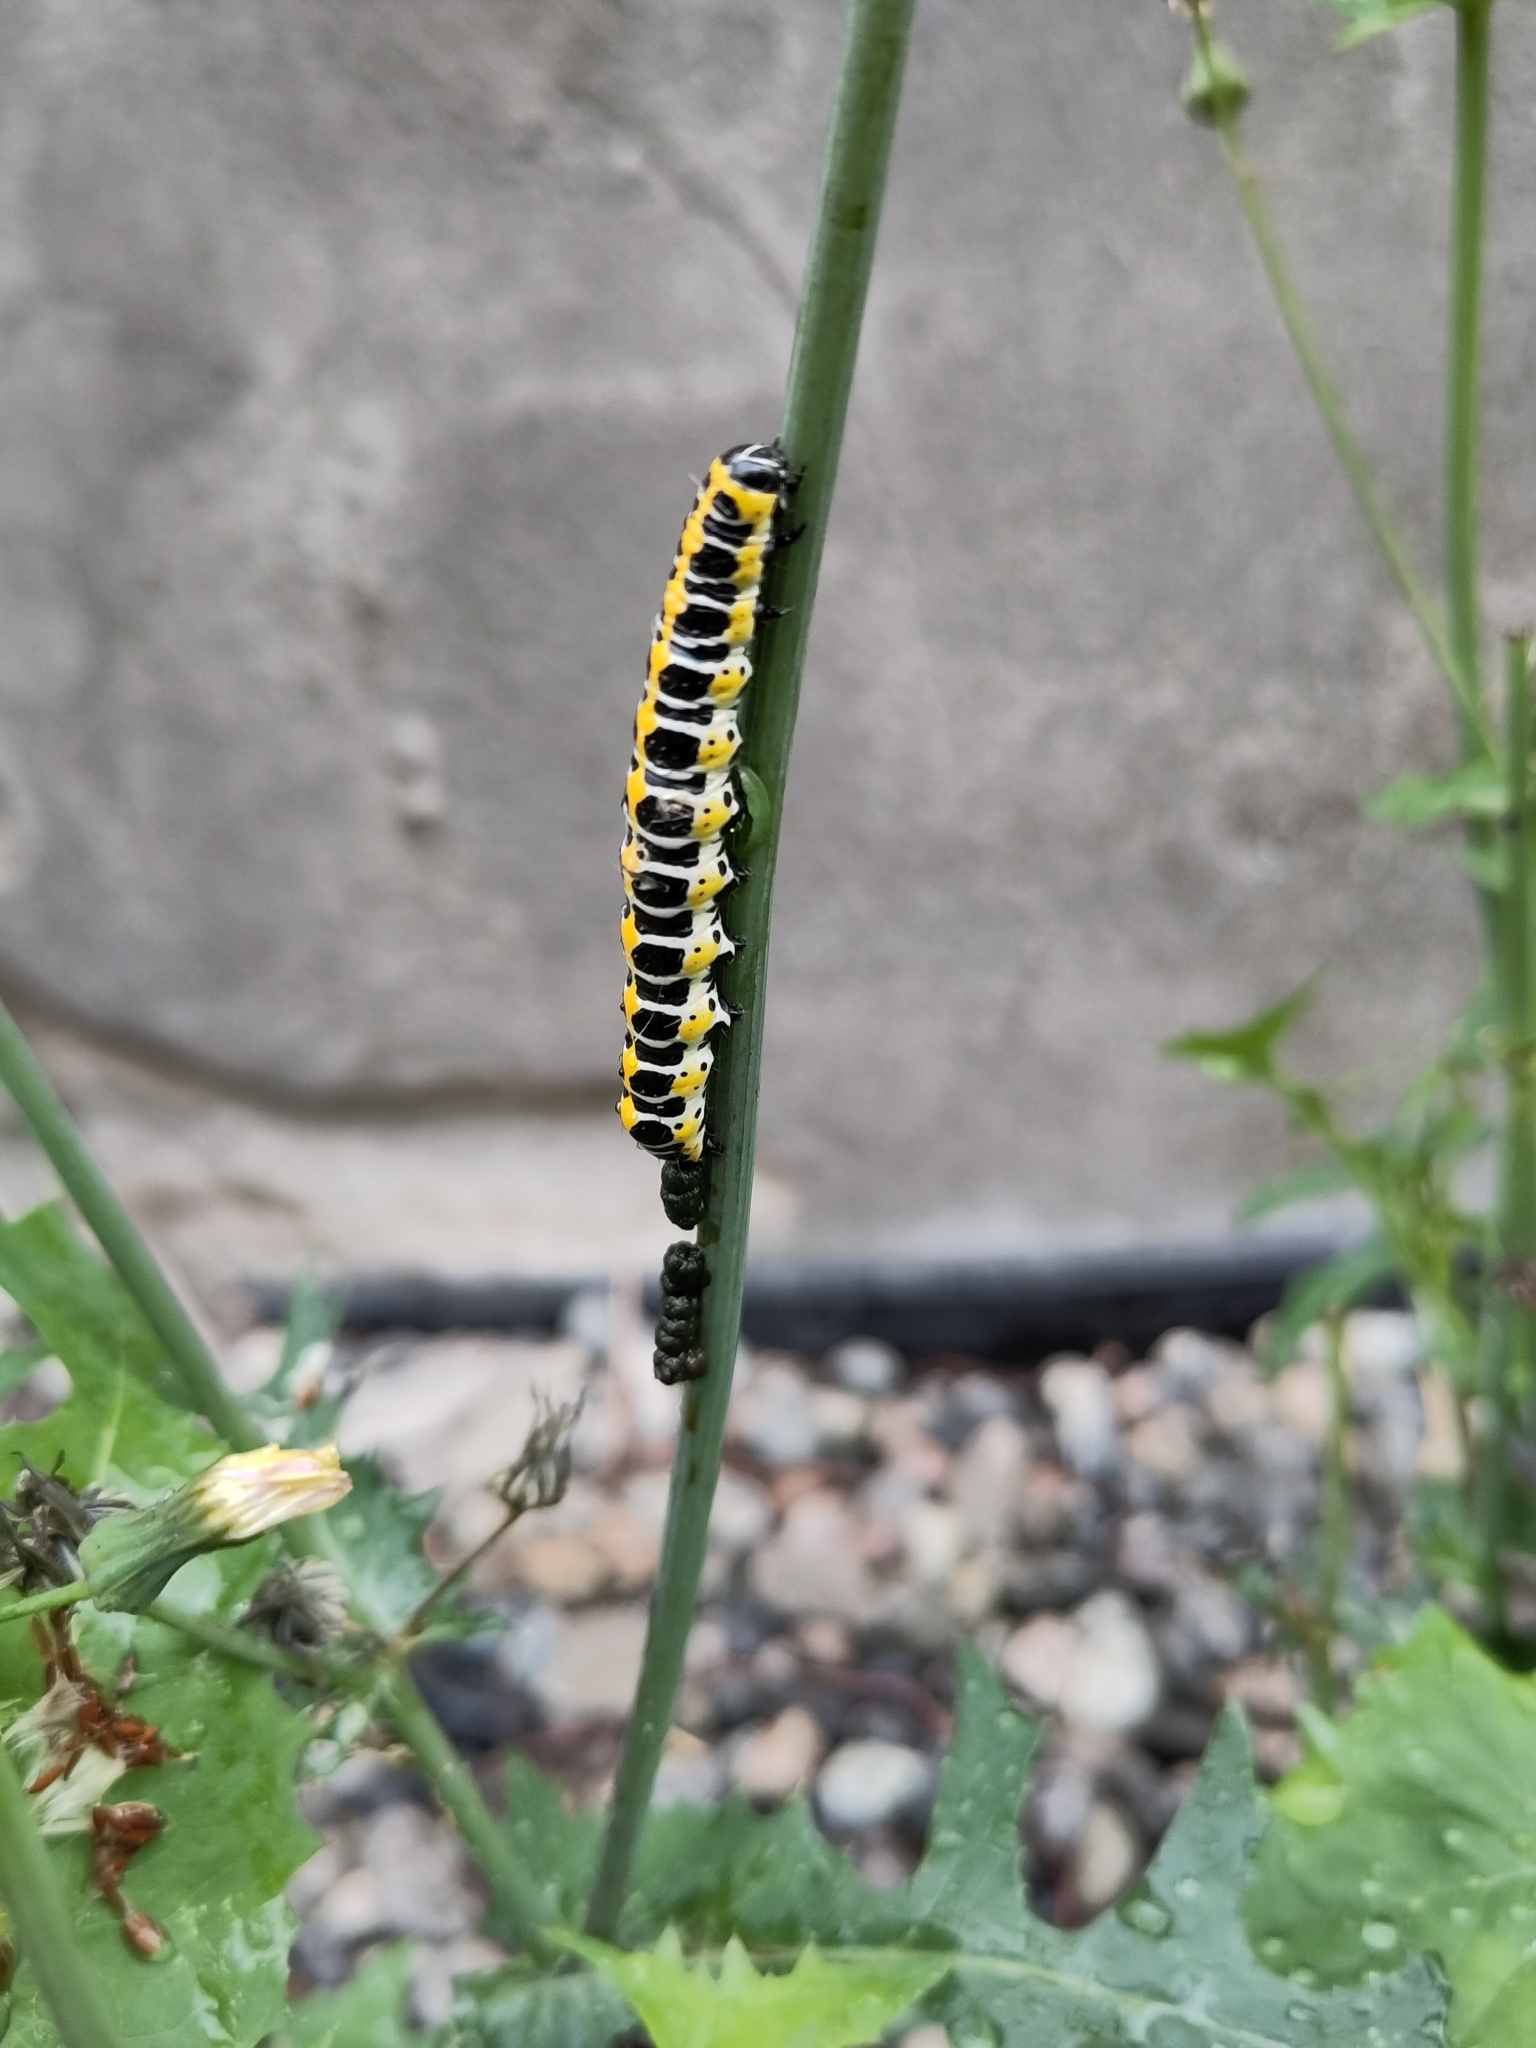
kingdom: Animalia
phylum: Arthropoda
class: Insecta
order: Lepidoptera
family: Noctuidae
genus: Cucullia
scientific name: Cucullia lactucae
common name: Lettuce shark
